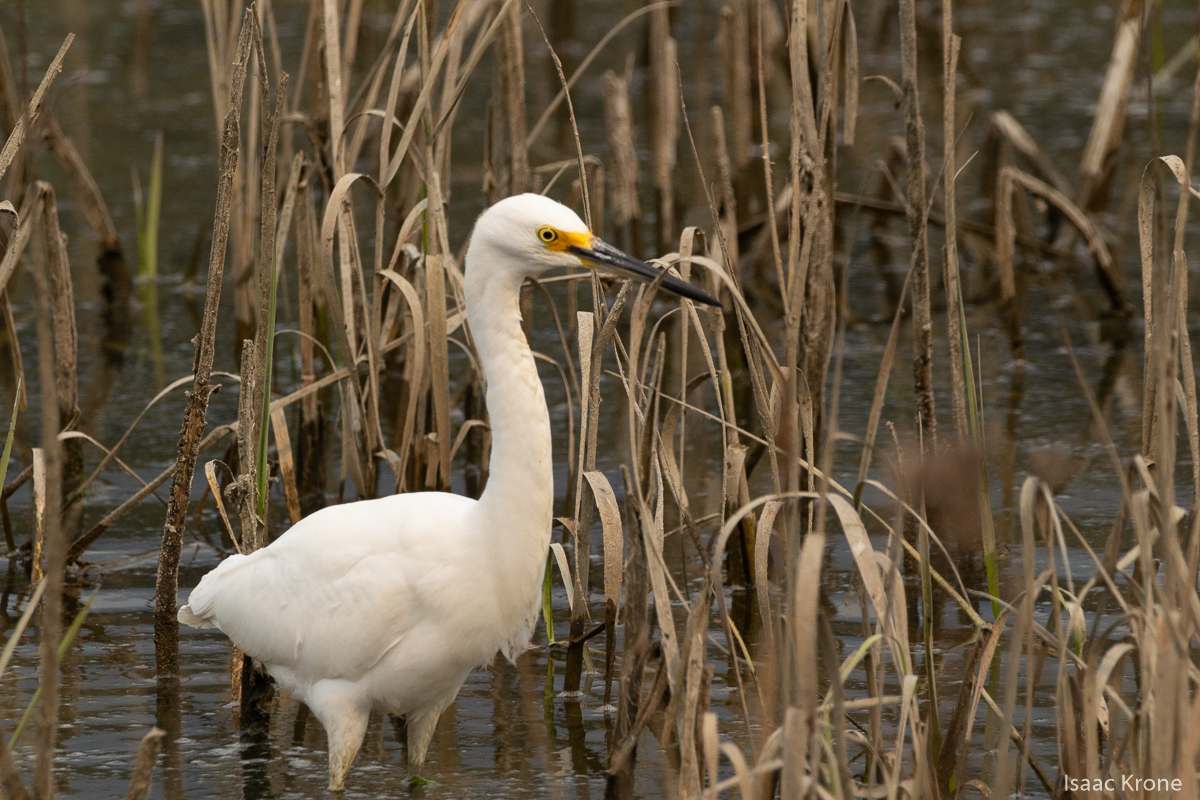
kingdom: Animalia
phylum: Chordata
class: Aves
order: Pelecaniformes
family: Ardeidae
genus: Egretta
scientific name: Egretta thula
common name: Snowy egret
